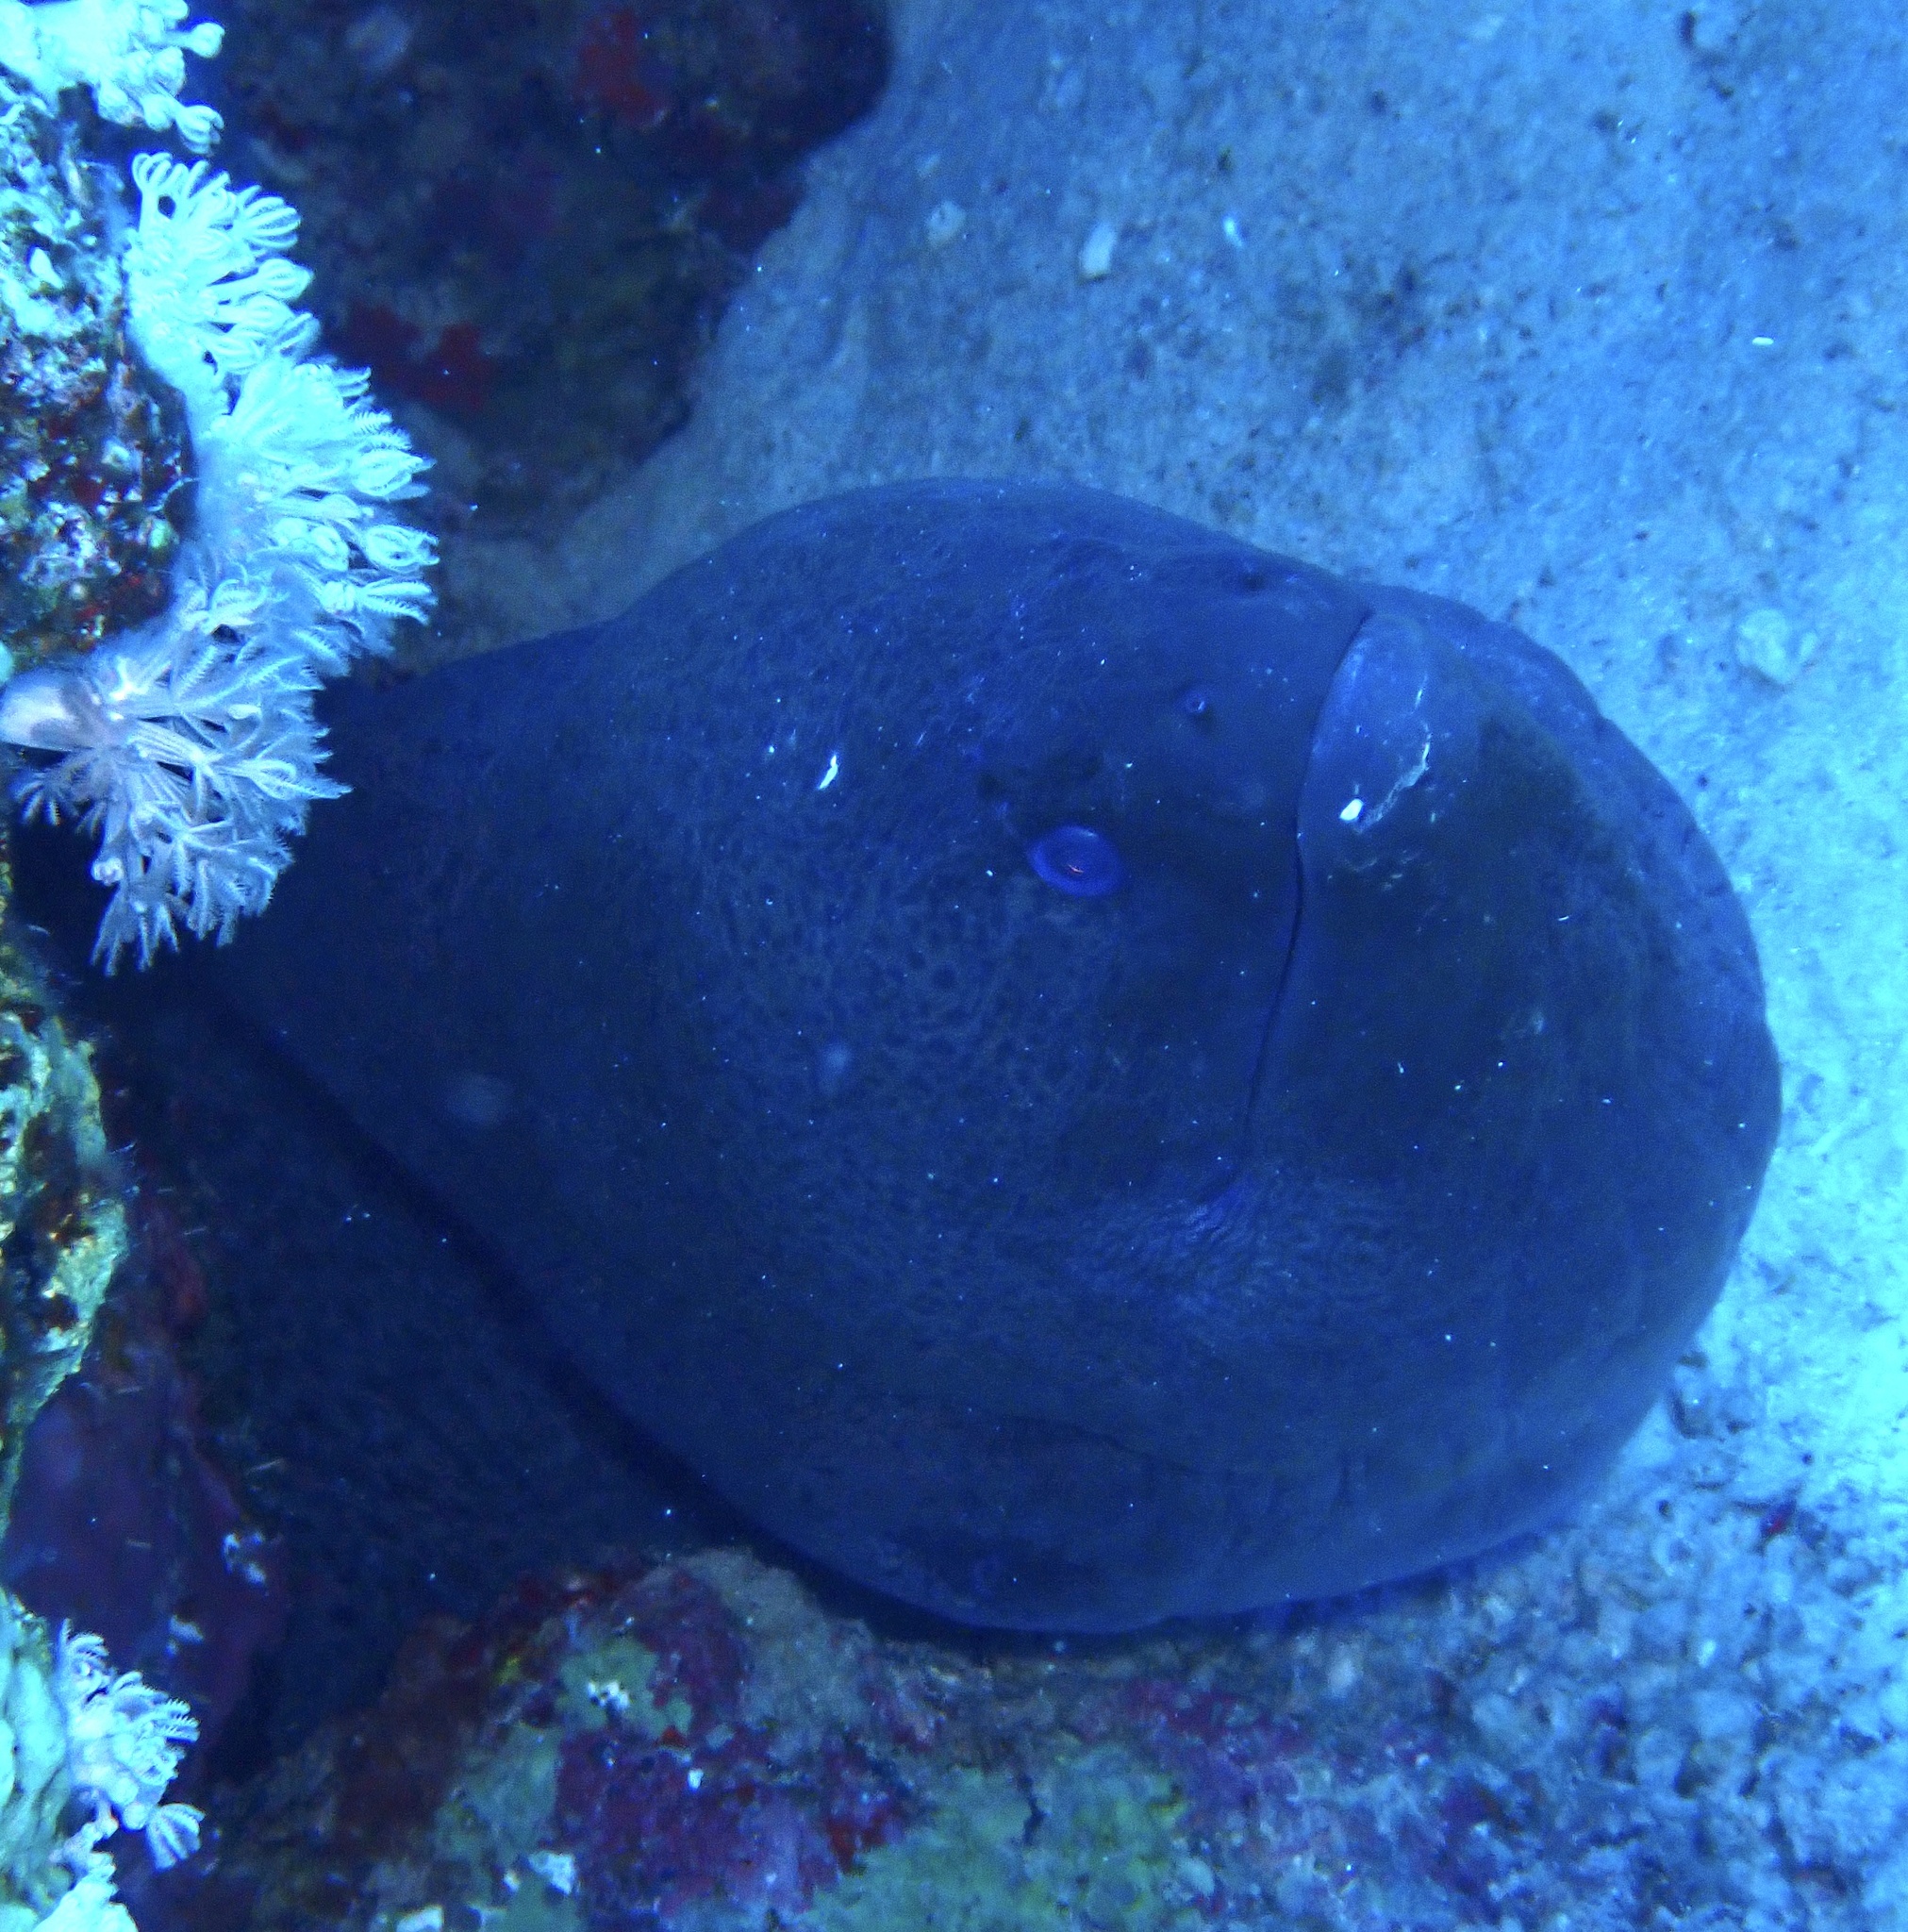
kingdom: Animalia
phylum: Chordata
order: Anguilliformes
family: Muraenidae
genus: Gymnothorax
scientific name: Gymnothorax javanicus
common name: Giant moray
